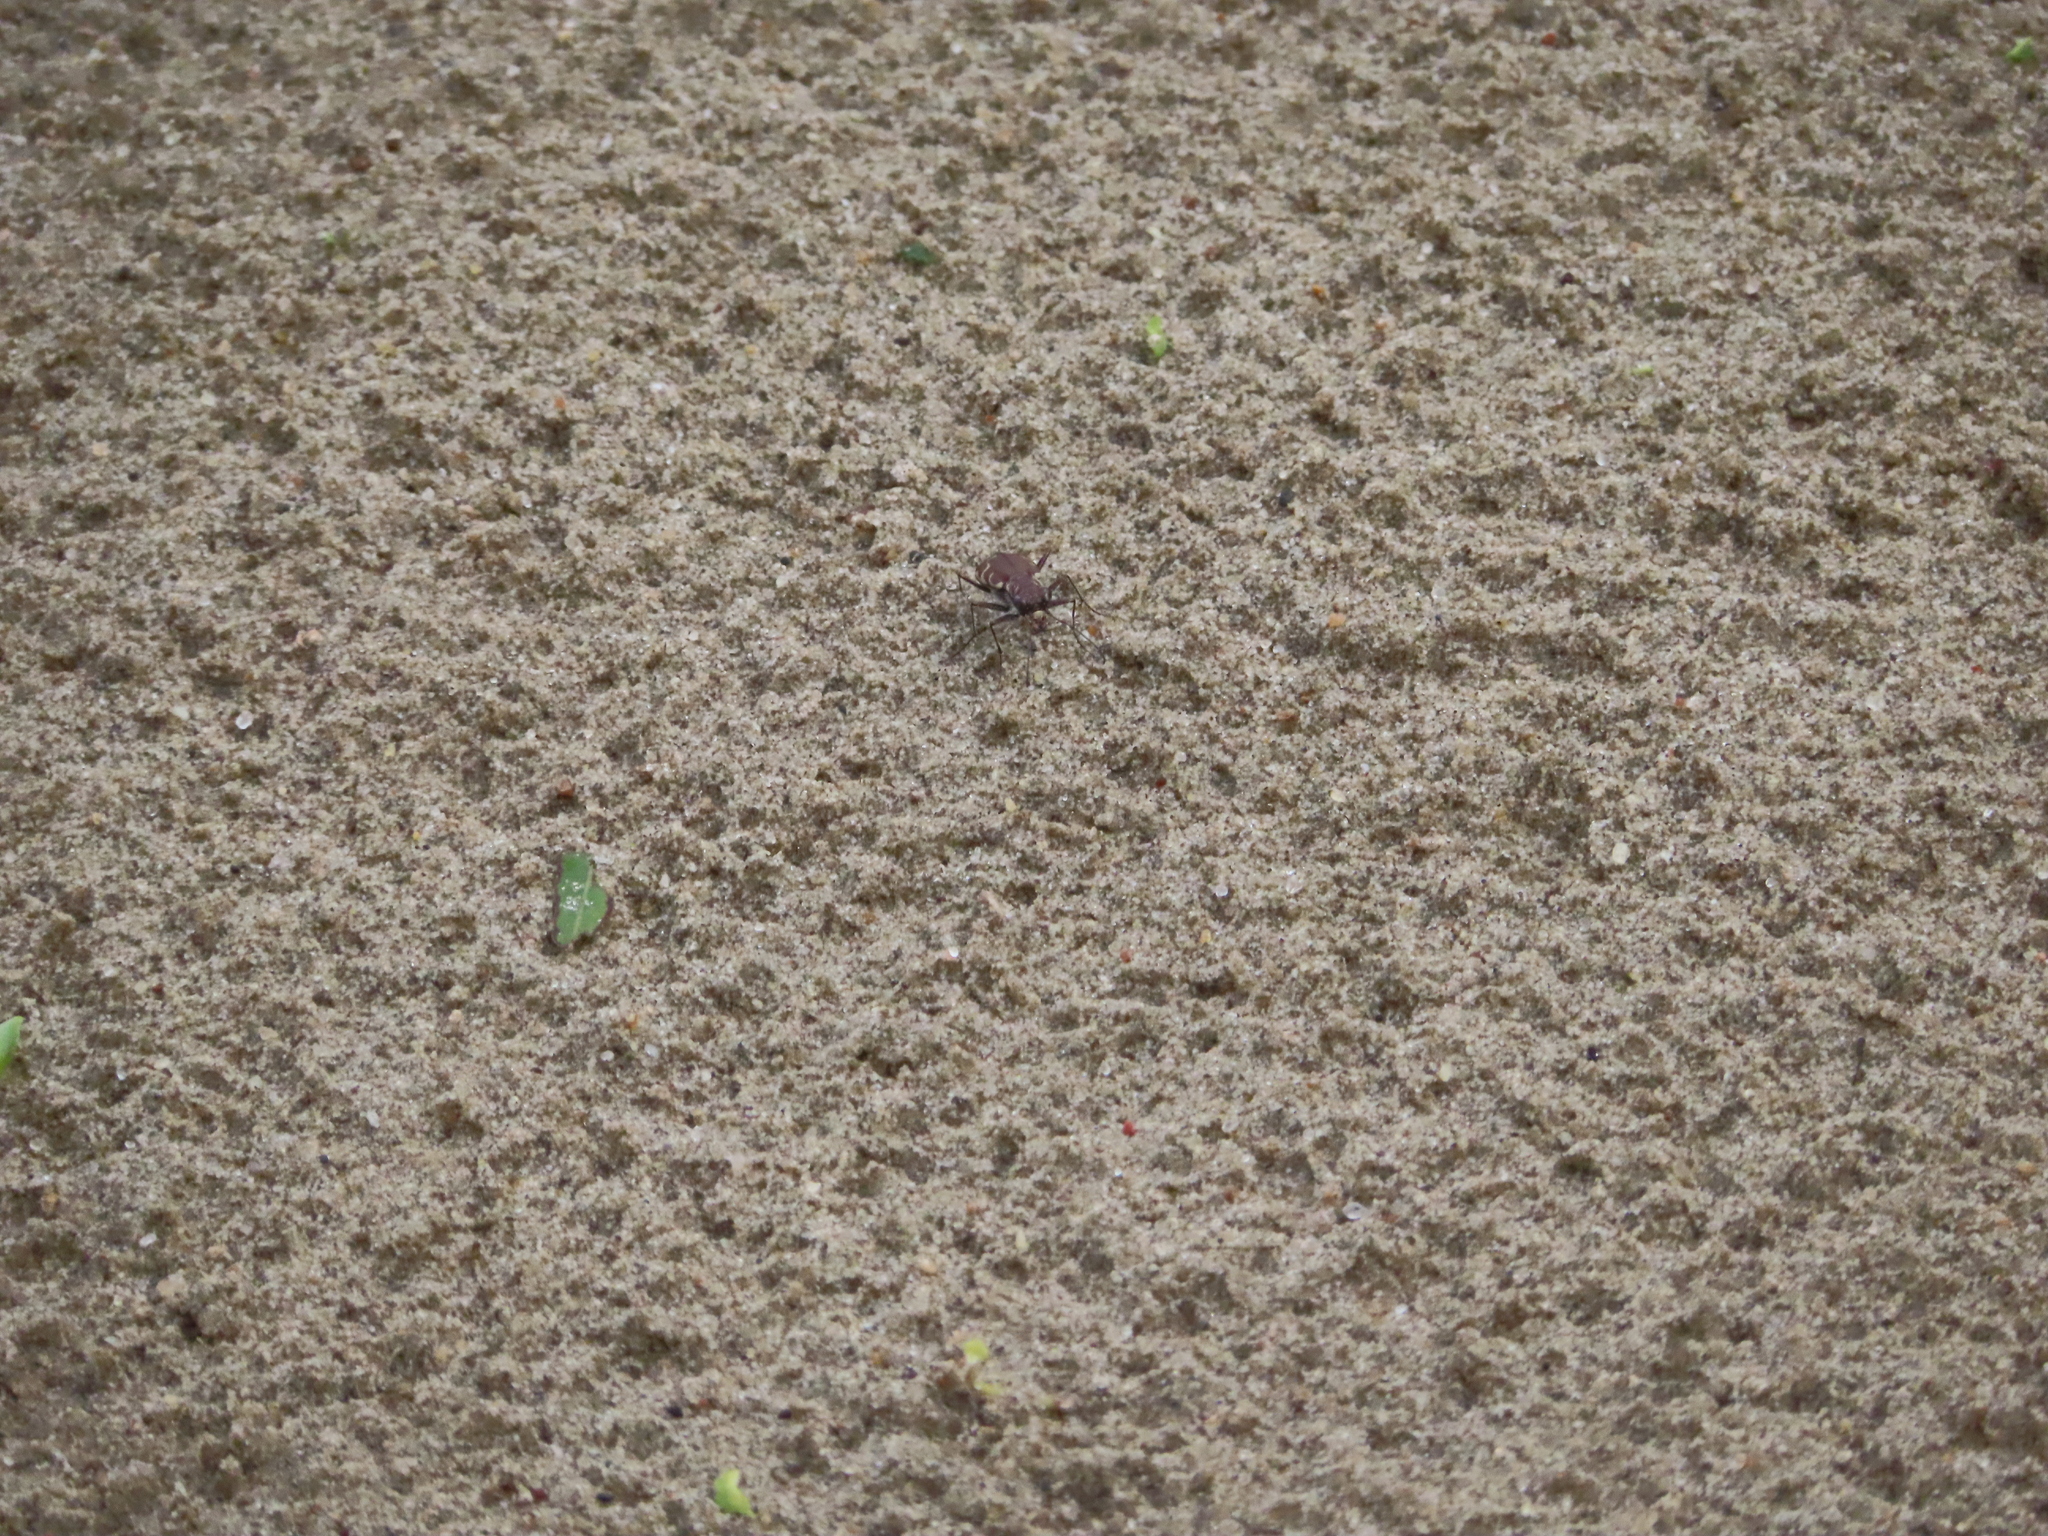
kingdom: Animalia
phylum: Arthropoda
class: Insecta
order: Coleoptera
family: Carabidae
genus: Cicindela
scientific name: Cicindela repanda
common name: Bronzed tiger beetle
